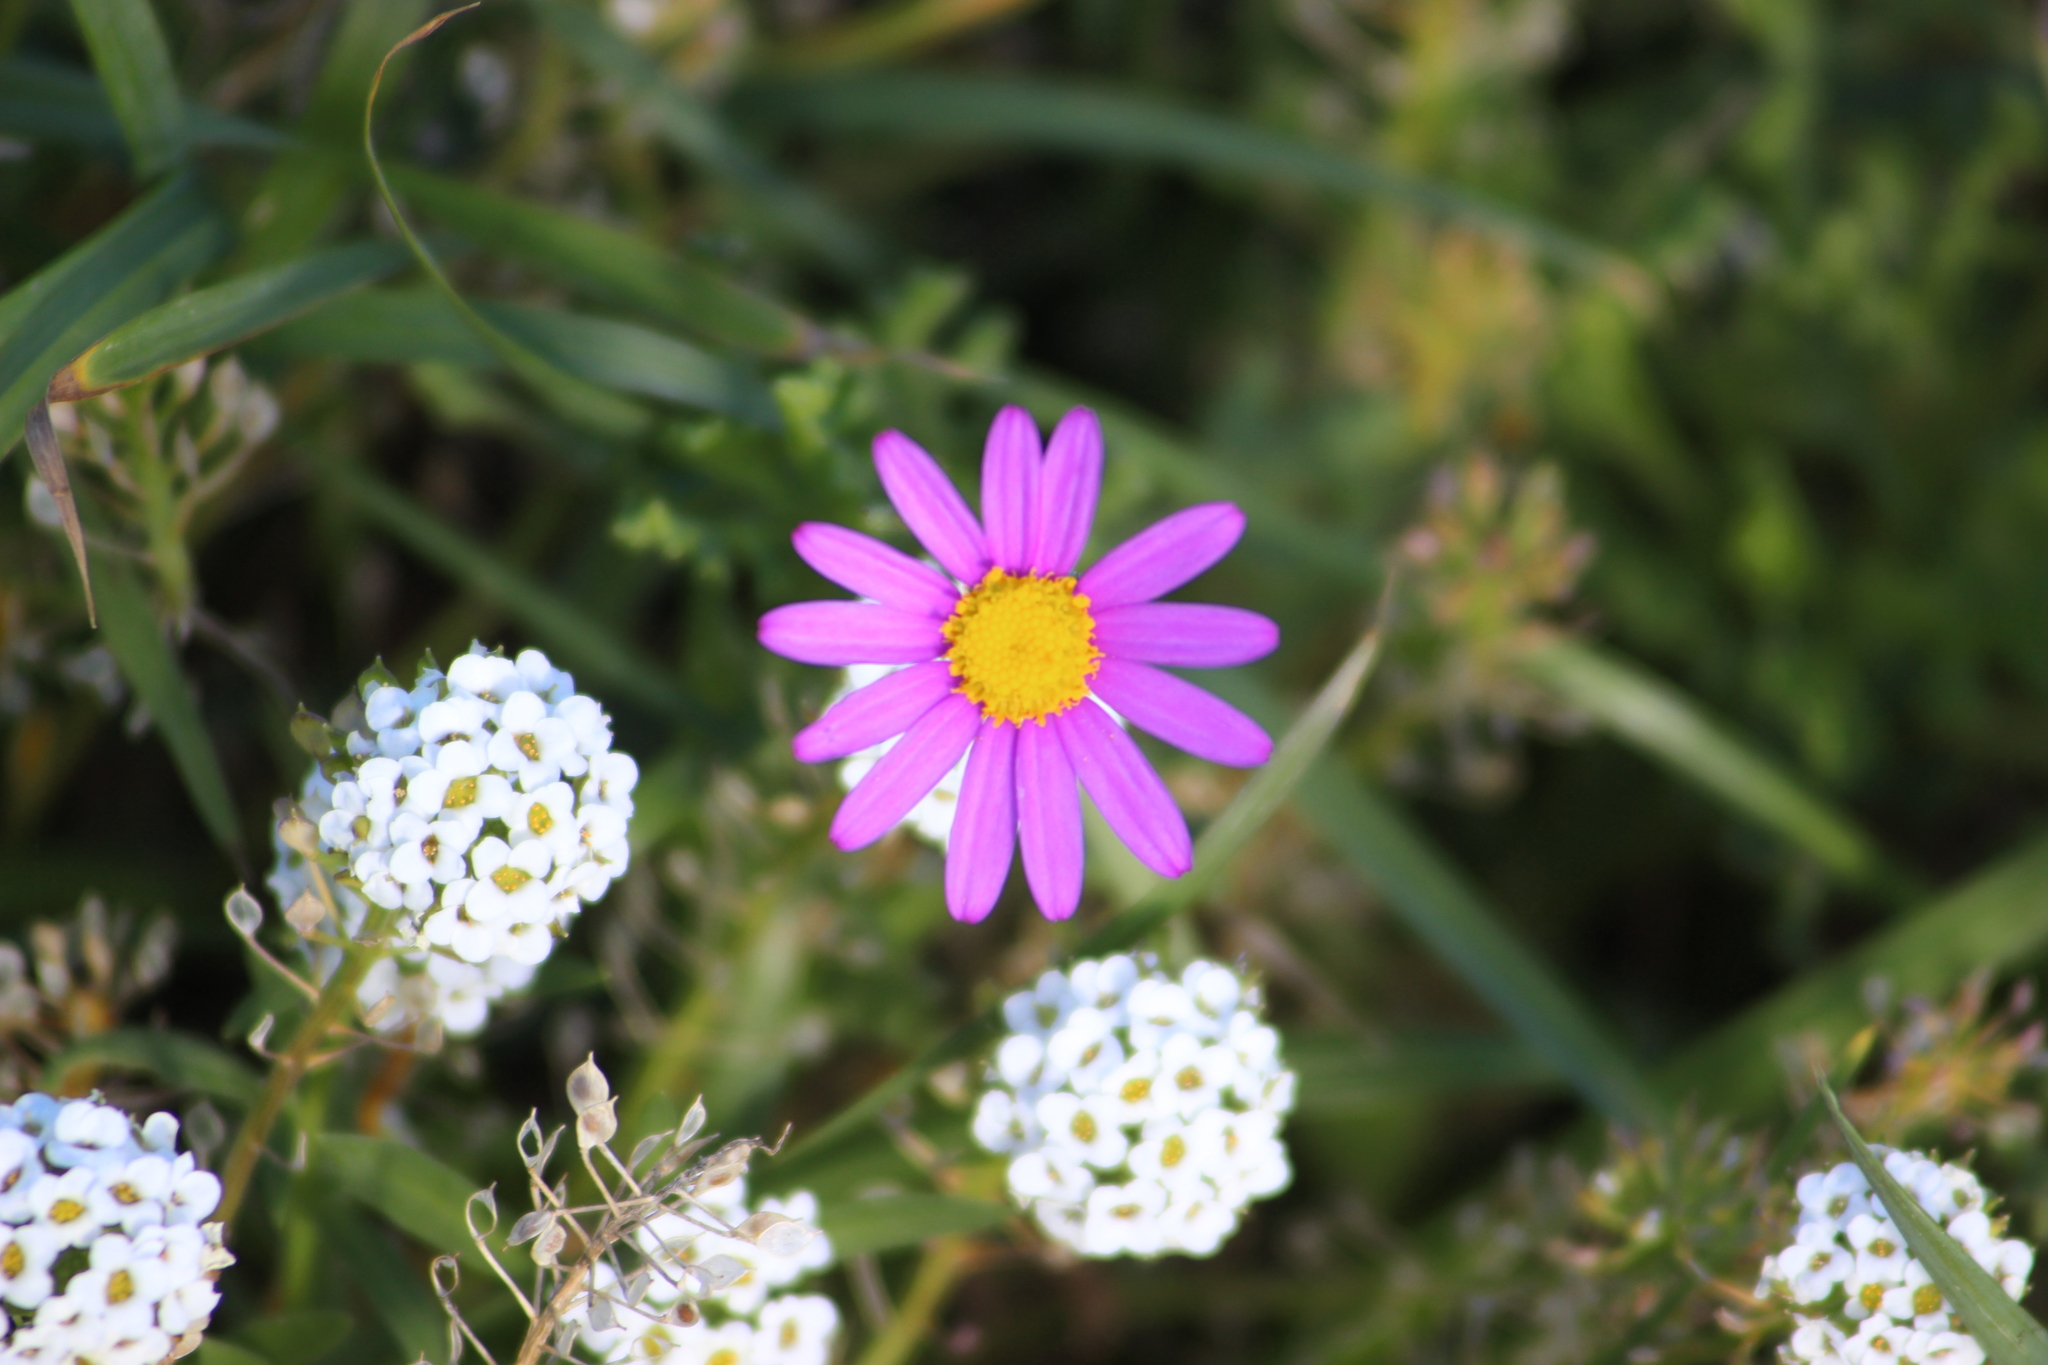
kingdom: Plantae
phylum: Tracheophyta
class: Magnoliopsida
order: Asterales
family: Asteraceae
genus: Senecio
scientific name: Senecio elegans
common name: Purple groundsel
